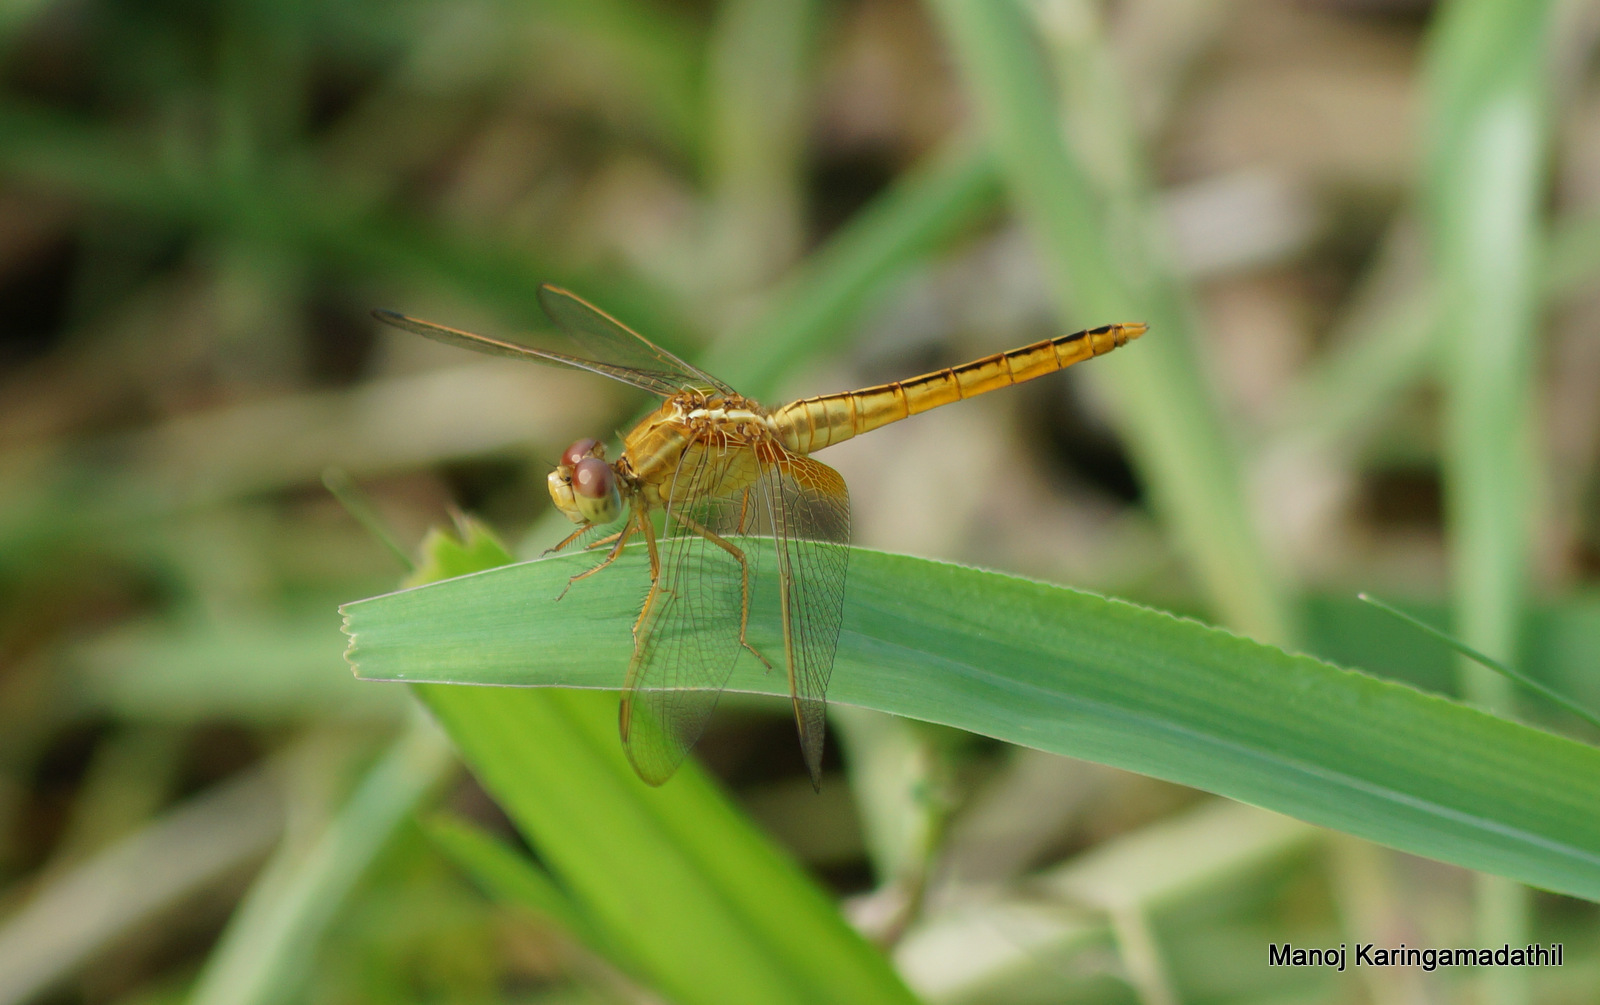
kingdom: Animalia
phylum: Arthropoda
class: Insecta
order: Odonata
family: Libellulidae
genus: Crocothemis
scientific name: Crocothemis servilia
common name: Scarlet skimmer
